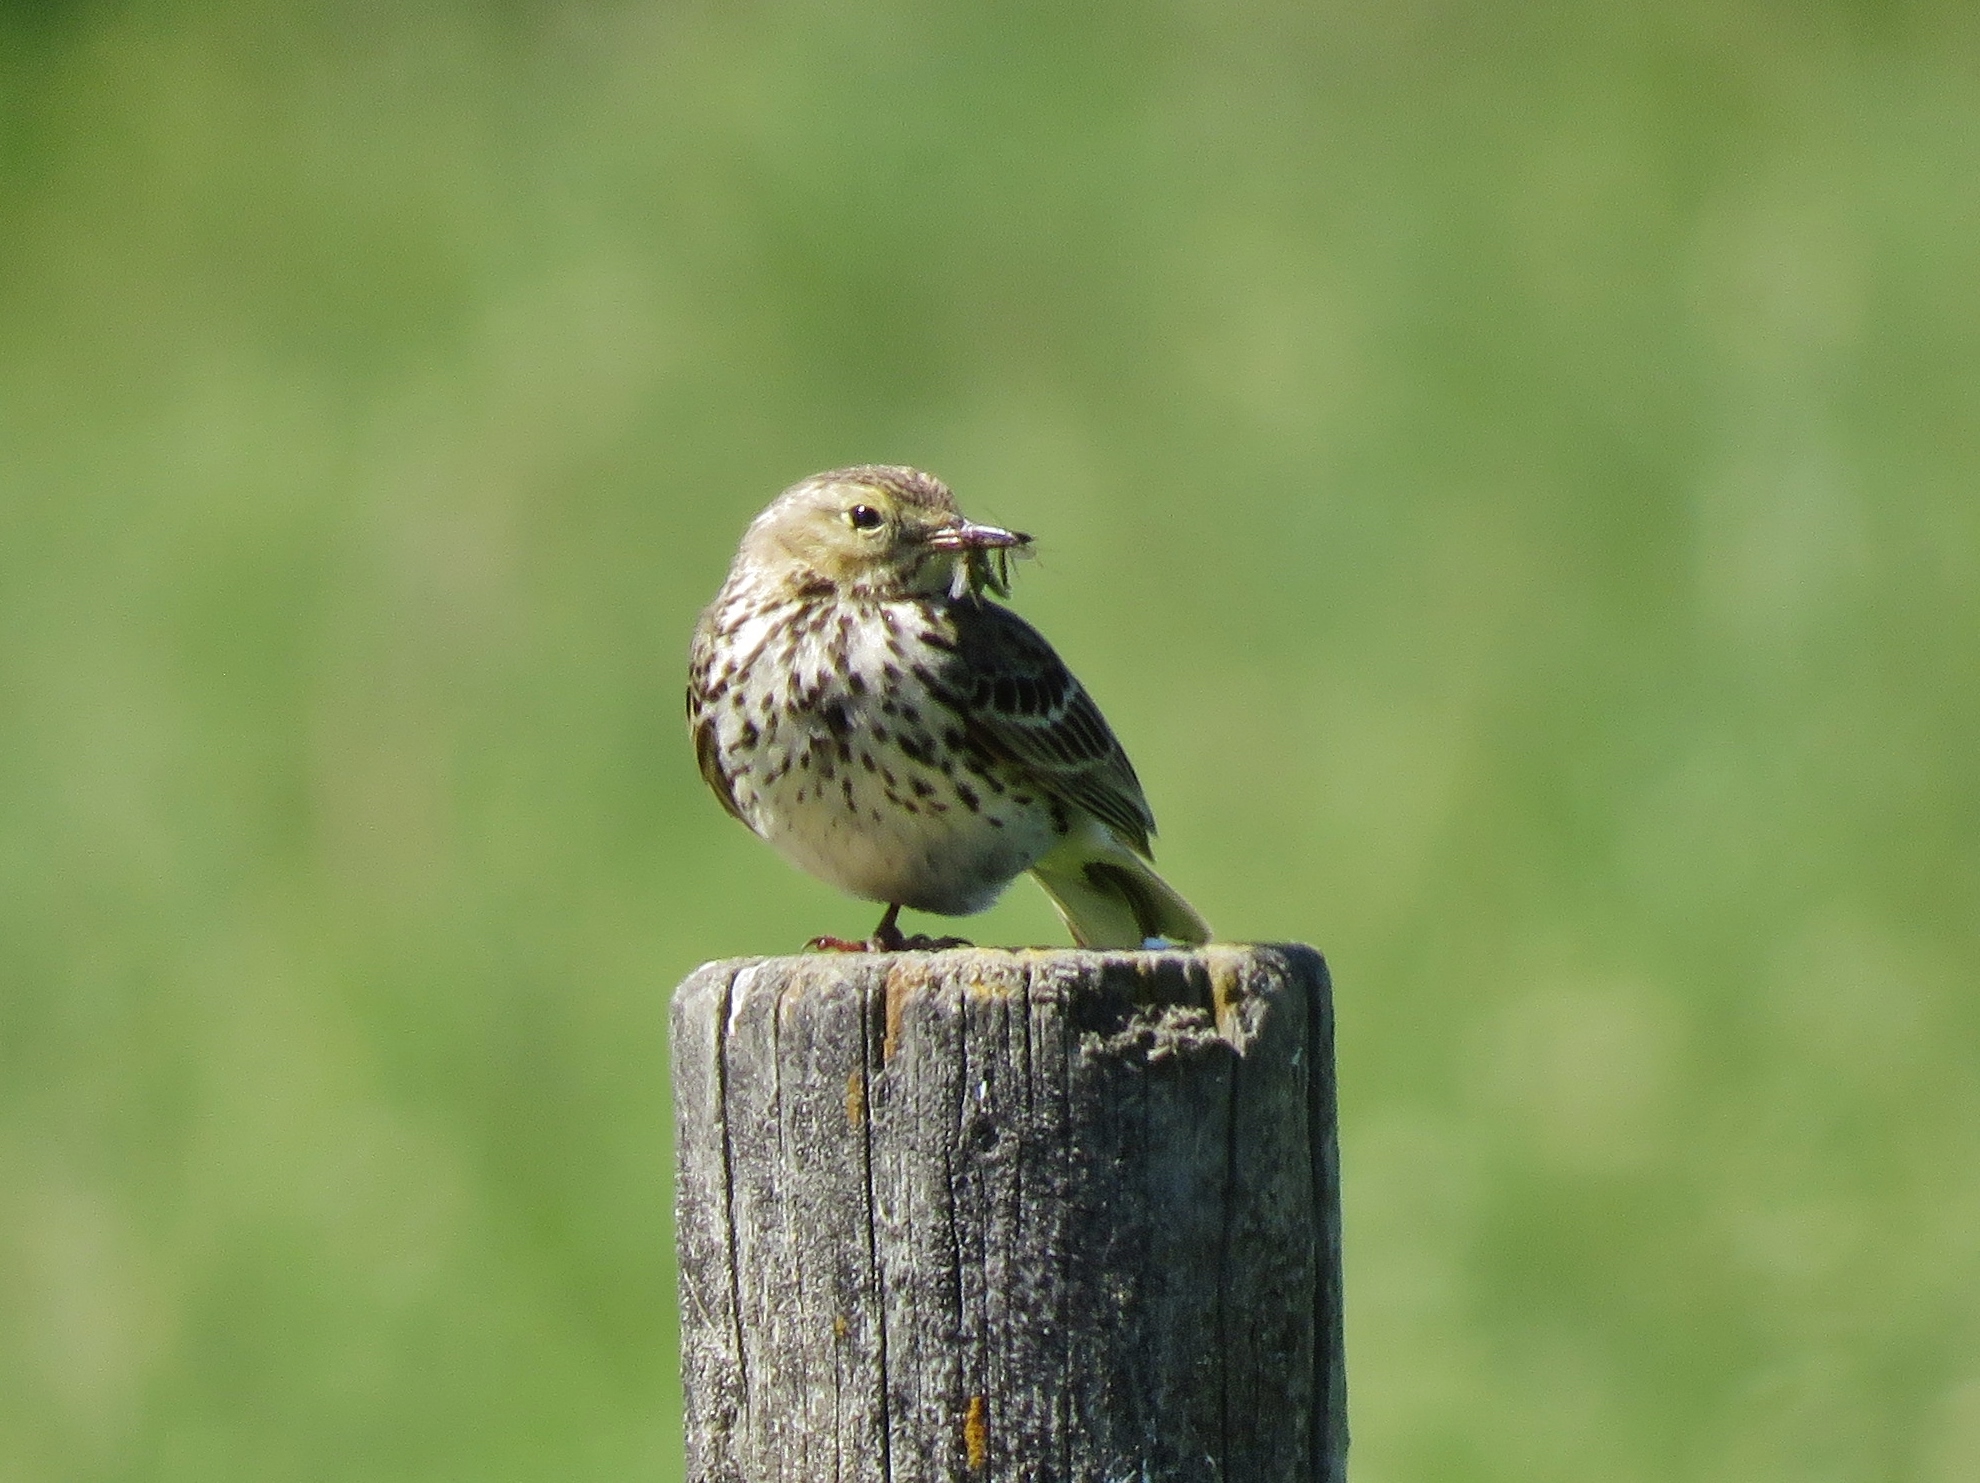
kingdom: Animalia
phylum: Chordata
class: Aves
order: Passeriformes
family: Motacillidae
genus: Anthus
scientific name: Anthus pratensis
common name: Meadow pipit
